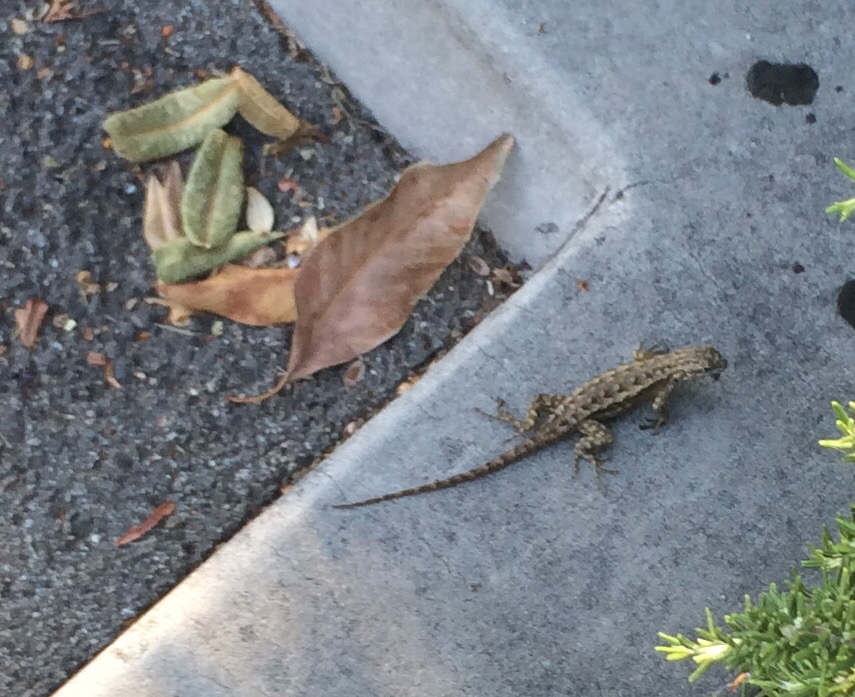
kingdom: Animalia
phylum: Chordata
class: Squamata
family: Phrynosomatidae
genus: Sceloporus
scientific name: Sceloporus occidentalis
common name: Western fence lizard
